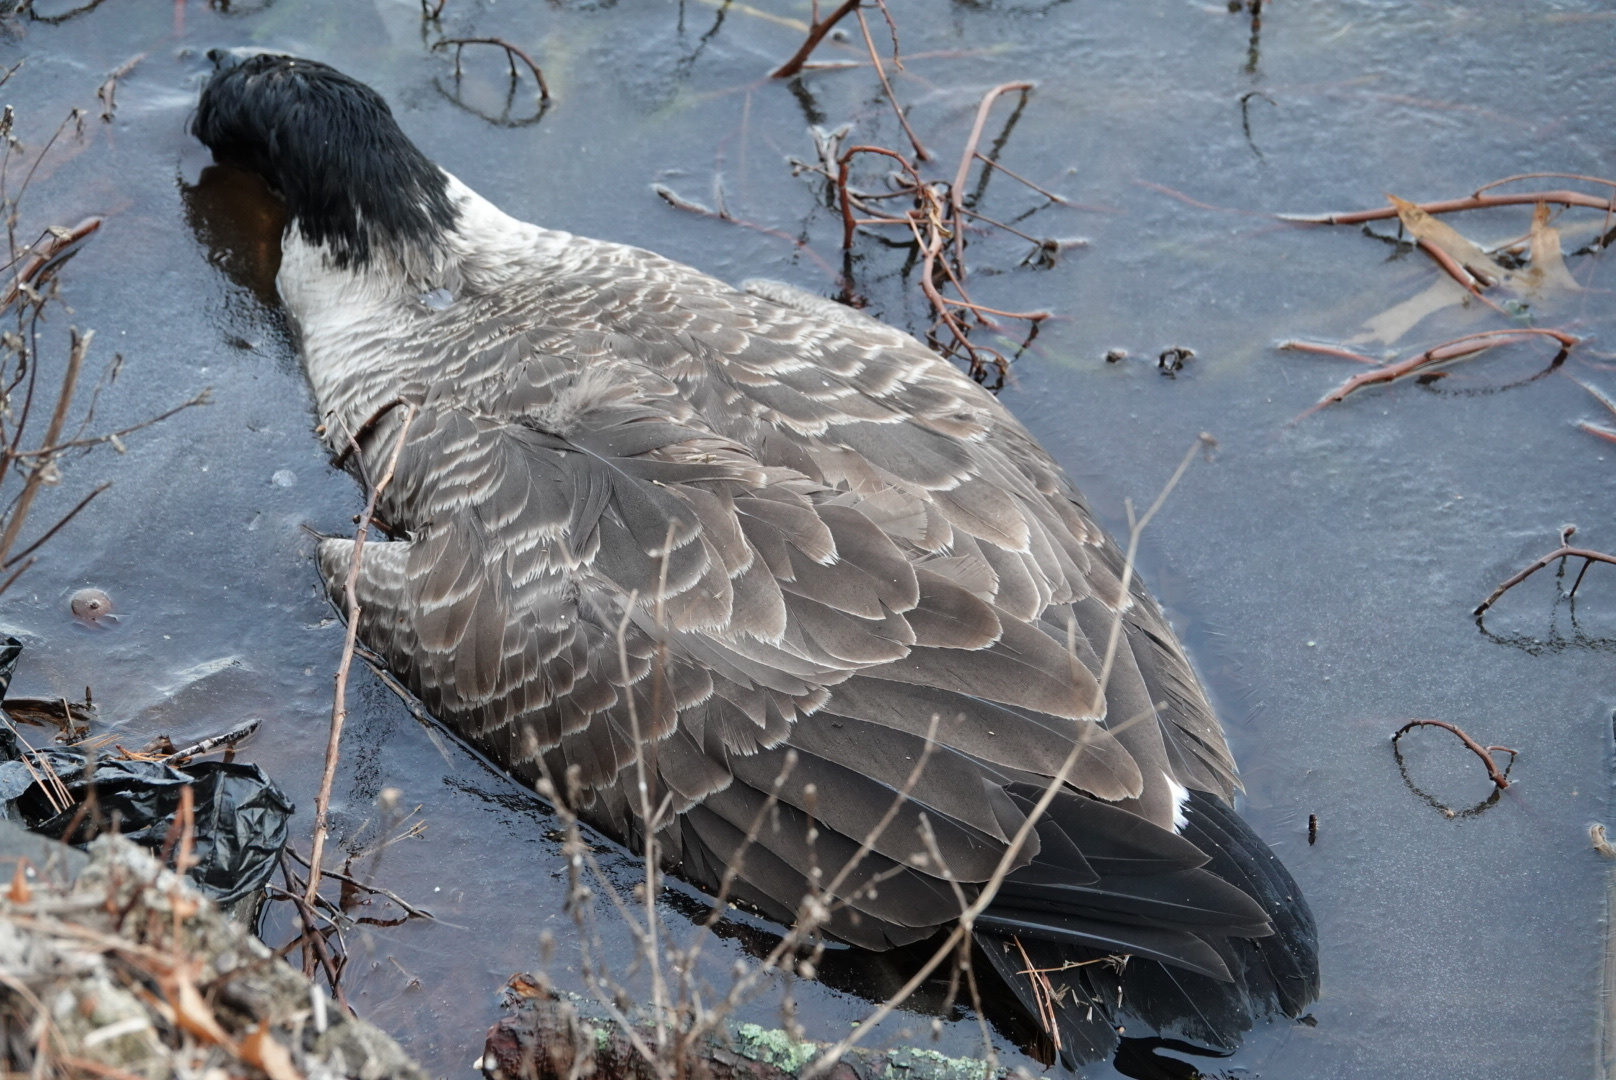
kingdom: Animalia
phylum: Chordata
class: Aves
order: Anseriformes
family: Anatidae
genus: Branta
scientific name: Branta canadensis
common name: Canada goose
